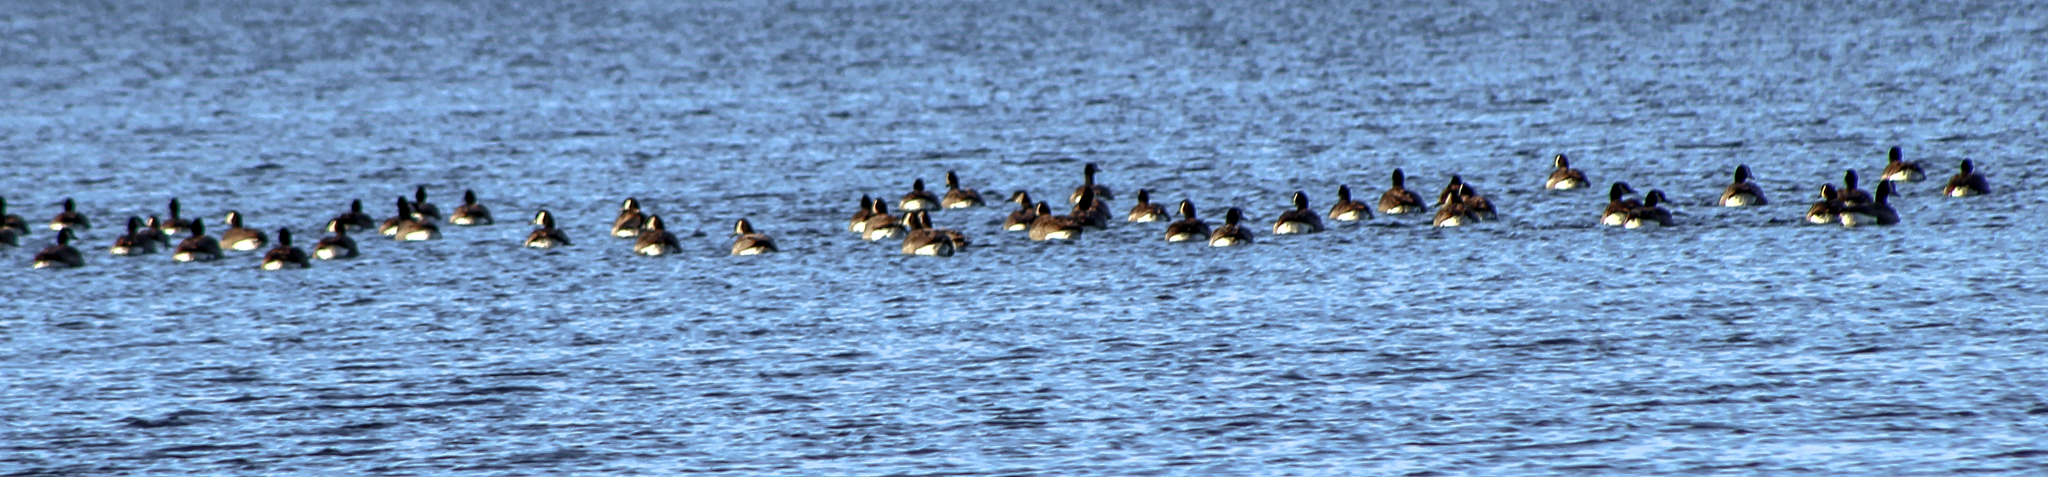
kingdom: Animalia
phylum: Chordata
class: Aves
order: Anseriformes
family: Anatidae
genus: Branta
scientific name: Branta canadensis
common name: Canada goose
